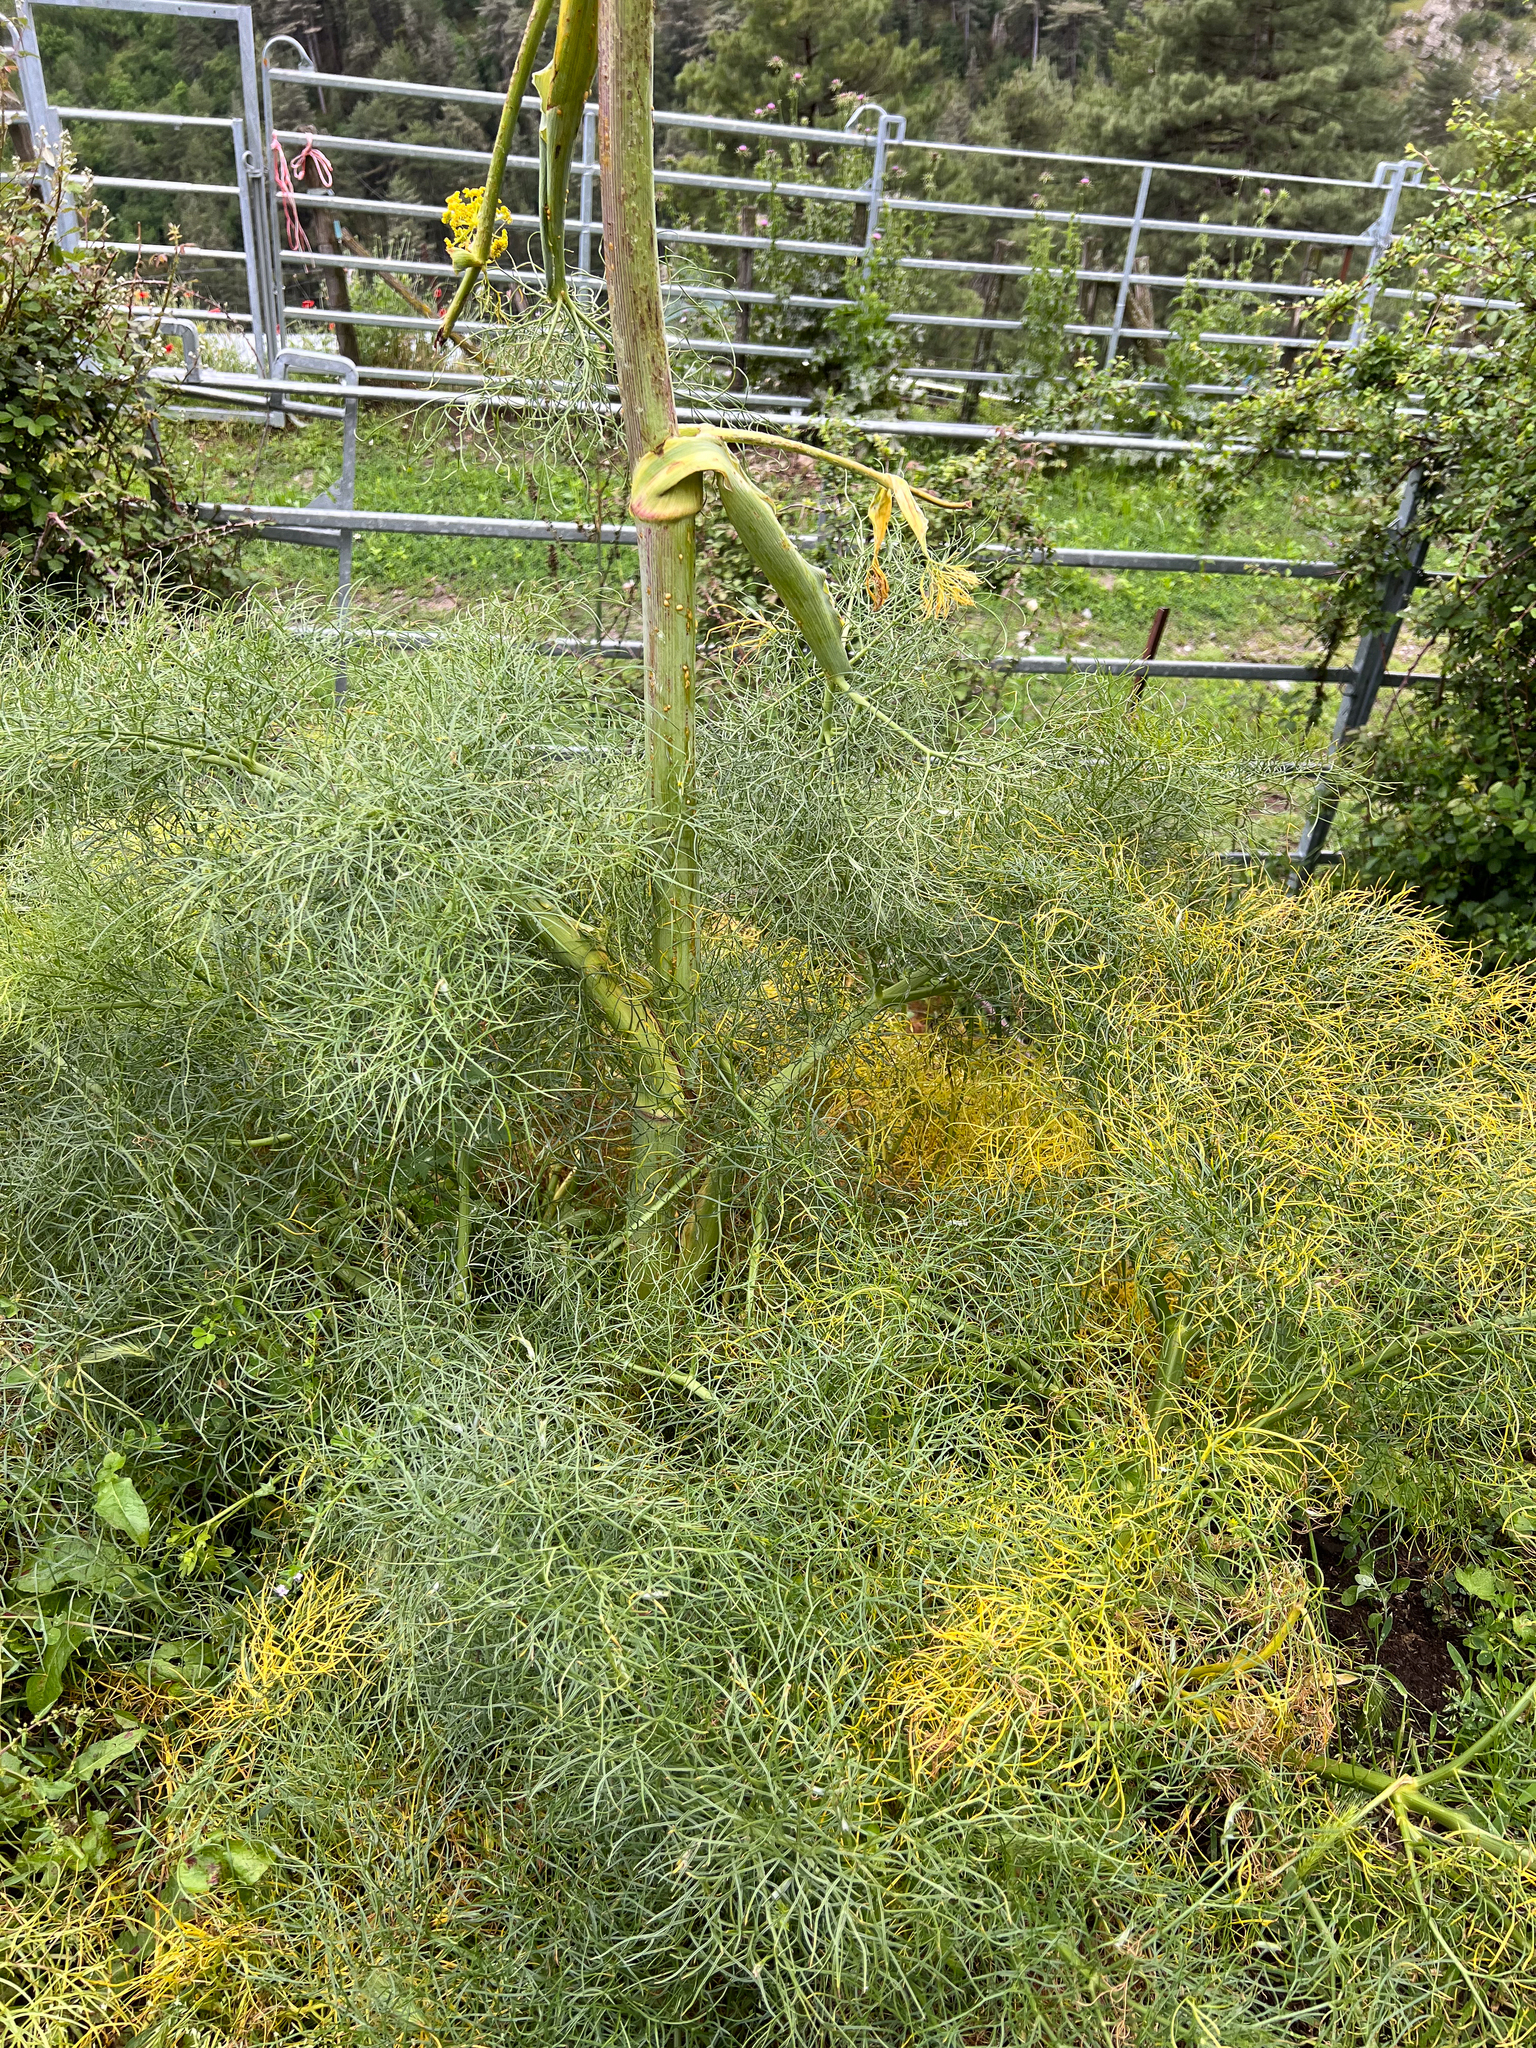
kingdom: Plantae
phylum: Tracheophyta
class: Magnoliopsida
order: Apiales
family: Apiaceae
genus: Ferula
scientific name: Ferula communis
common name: Giant fennel
